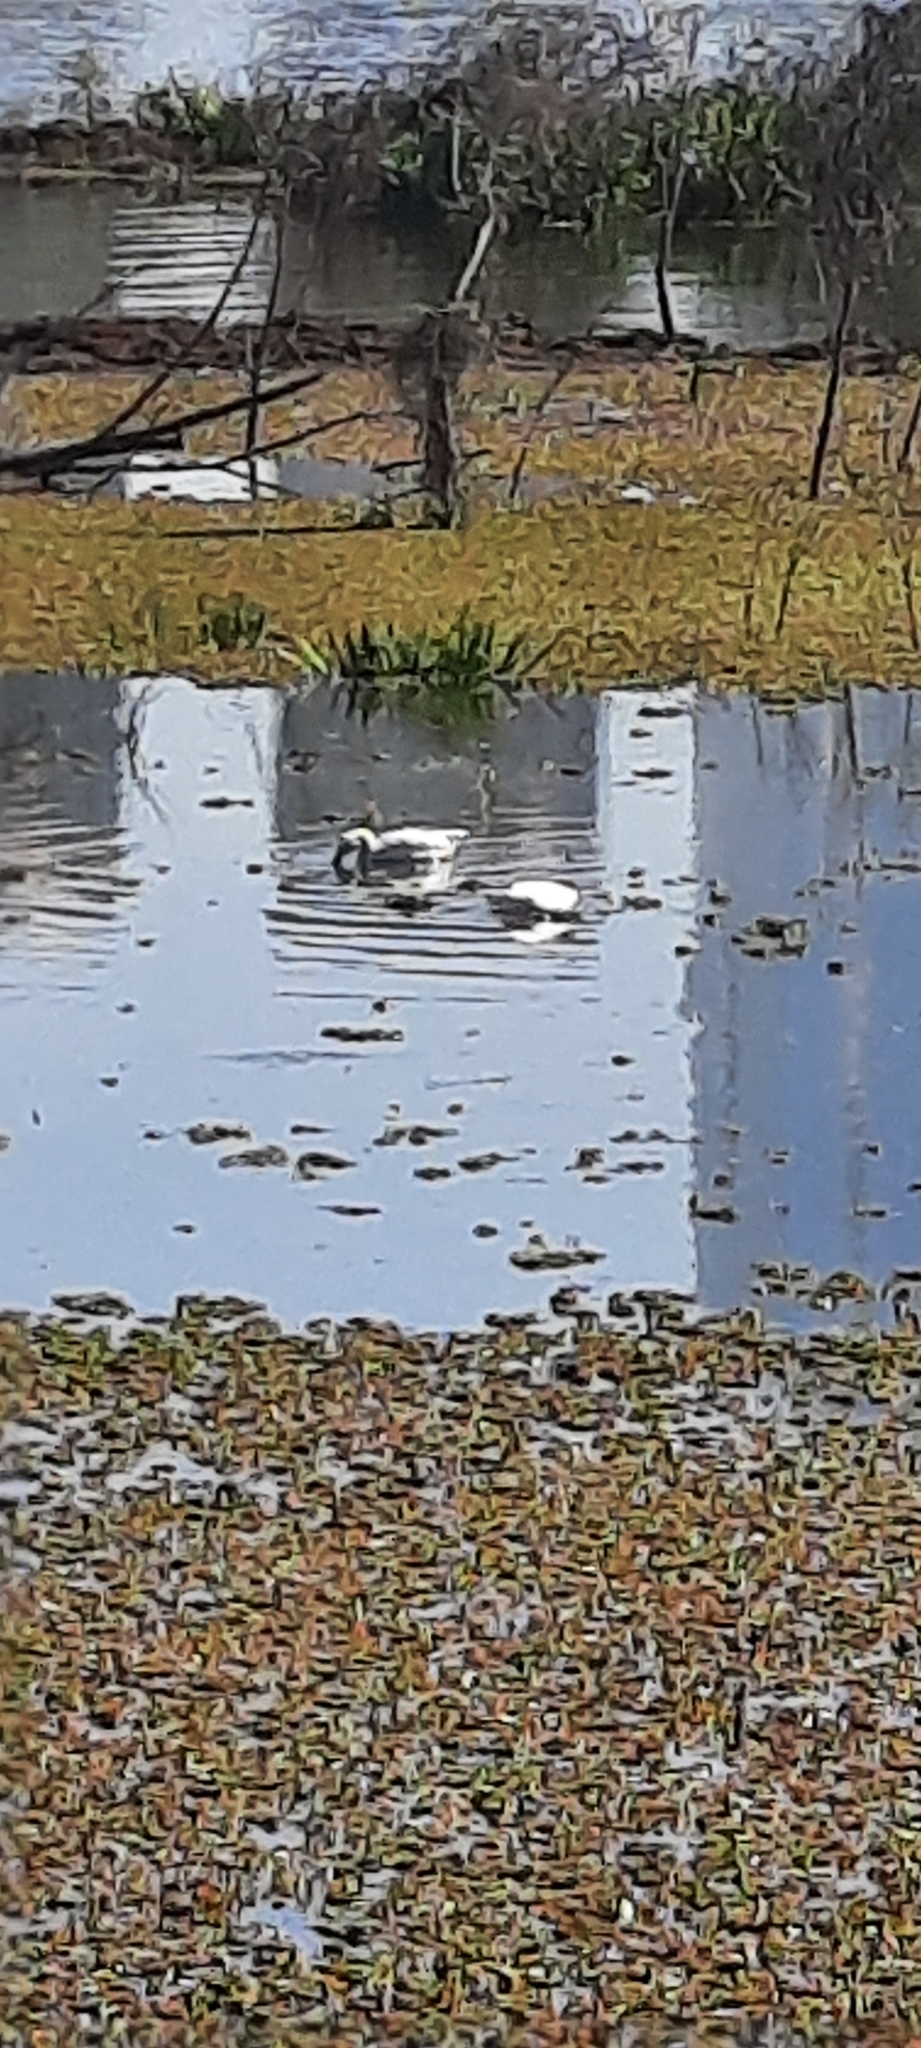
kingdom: Animalia
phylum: Chordata
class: Aves
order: Pelecaniformes
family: Ardeidae
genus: Ardea
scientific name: Ardea alba
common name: Great egret
